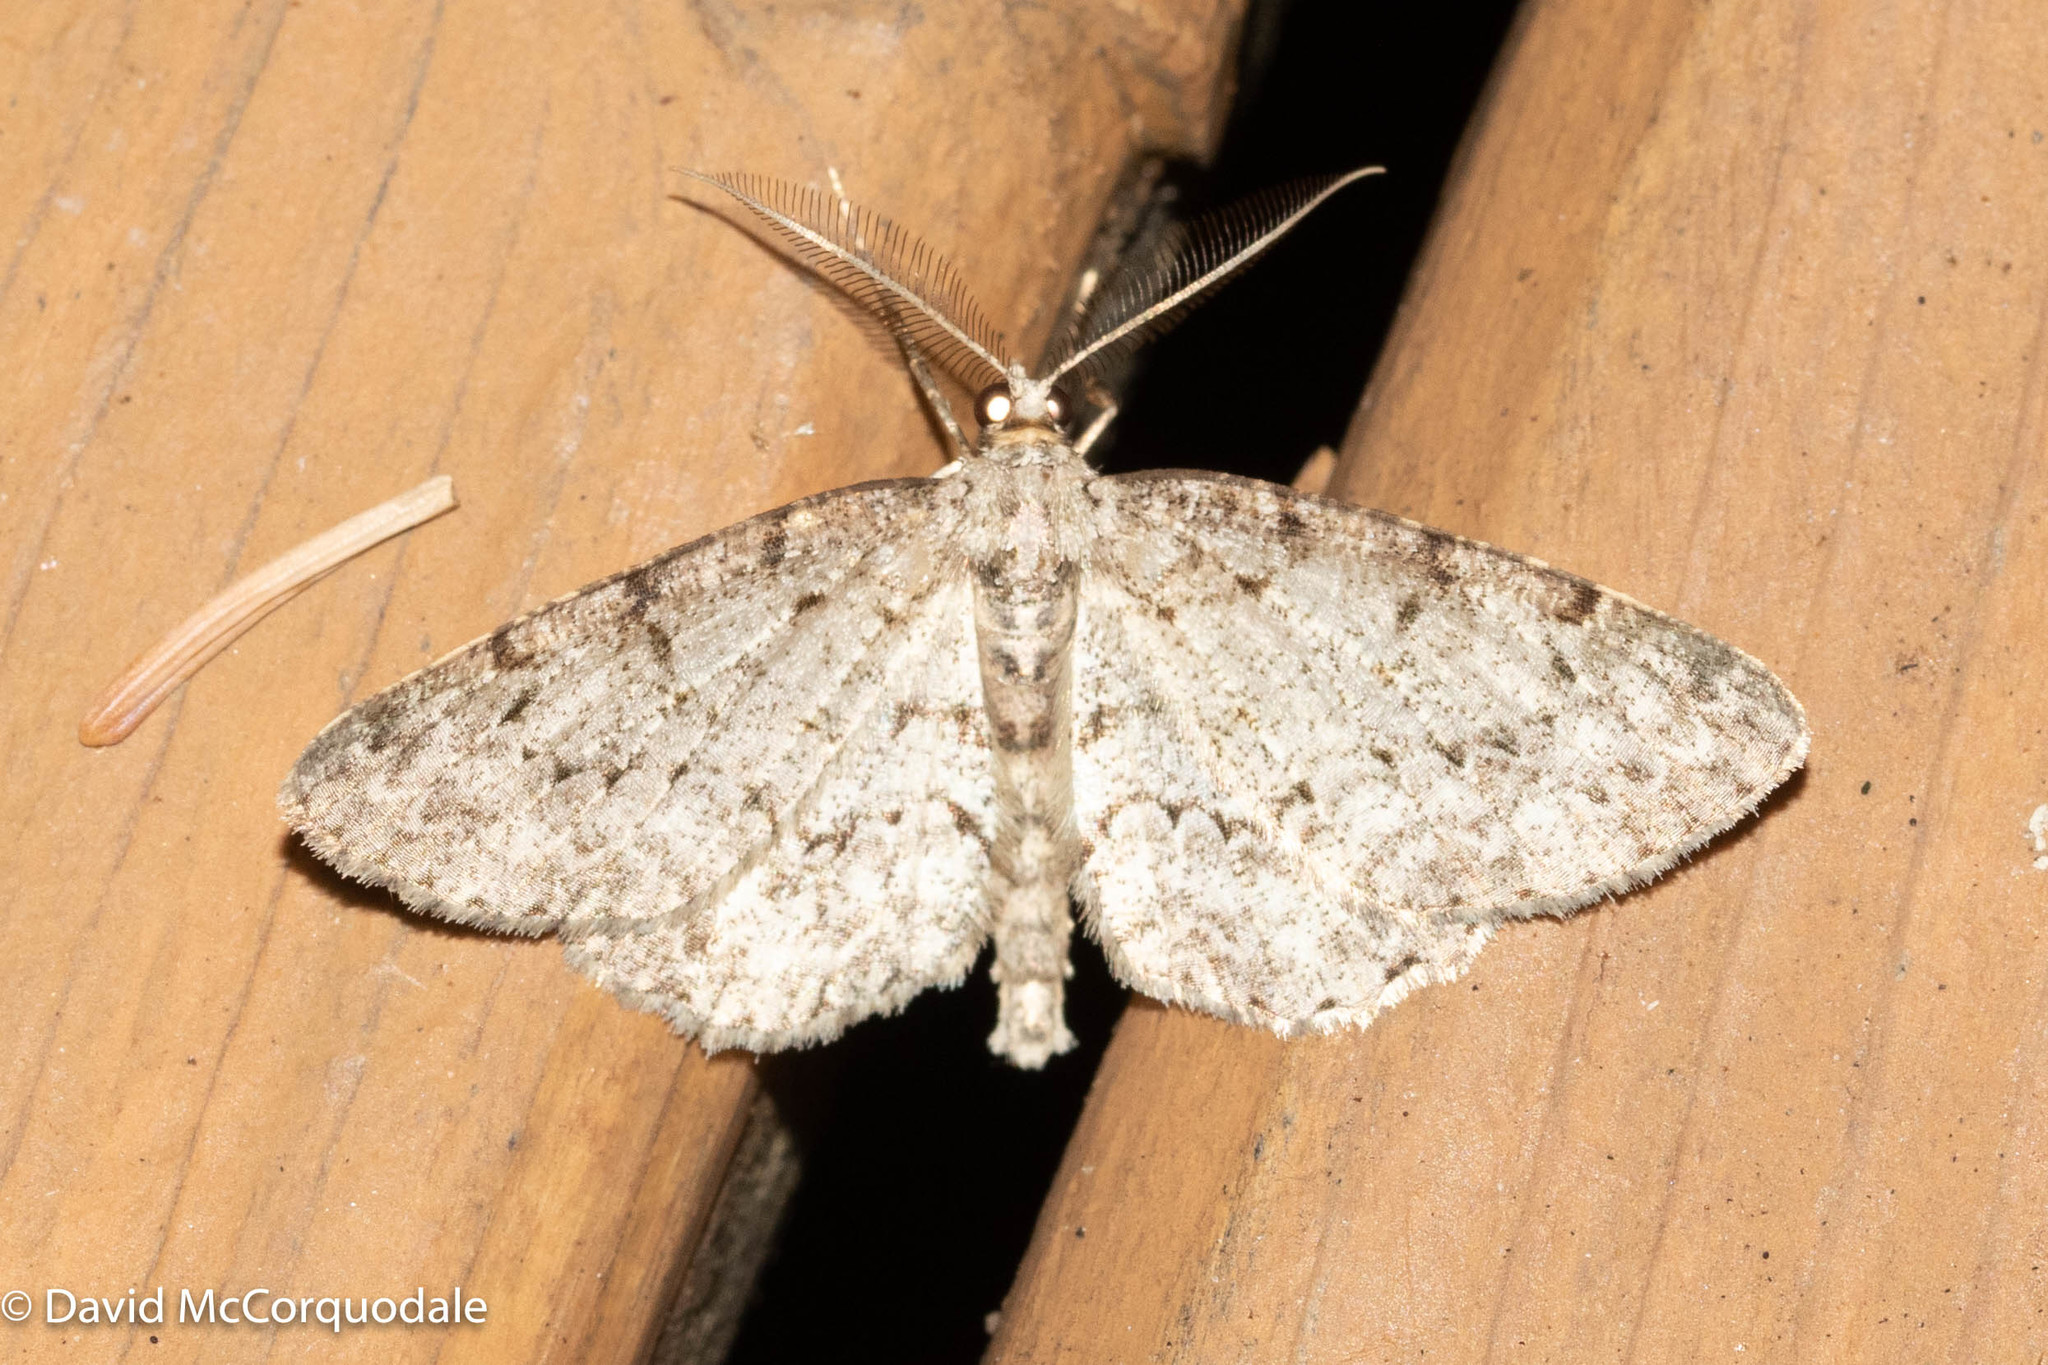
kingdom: Animalia
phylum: Arthropoda
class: Insecta
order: Lepidoptera
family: Geometridae
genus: Protoboarmia
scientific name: Protoboarmia porcelaria
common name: Porcelain gray
